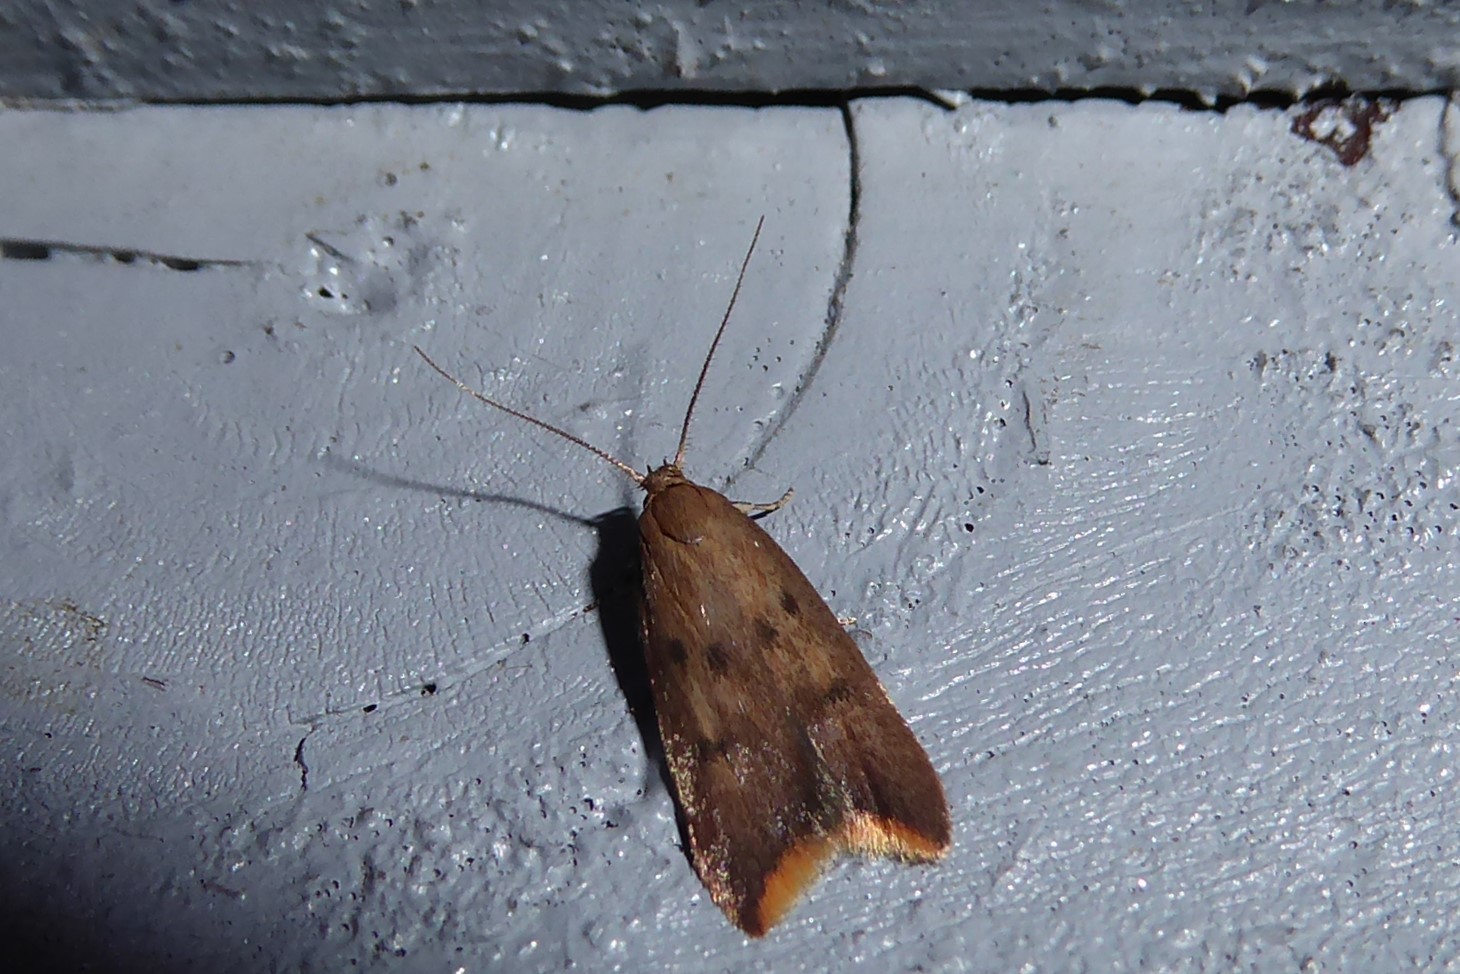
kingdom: Animalia
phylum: Arthropoda
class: Insecta
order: Lepidoptera
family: Oecophoridae
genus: Tachystola
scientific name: Tachystola acroxantha
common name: Ruddy streak
